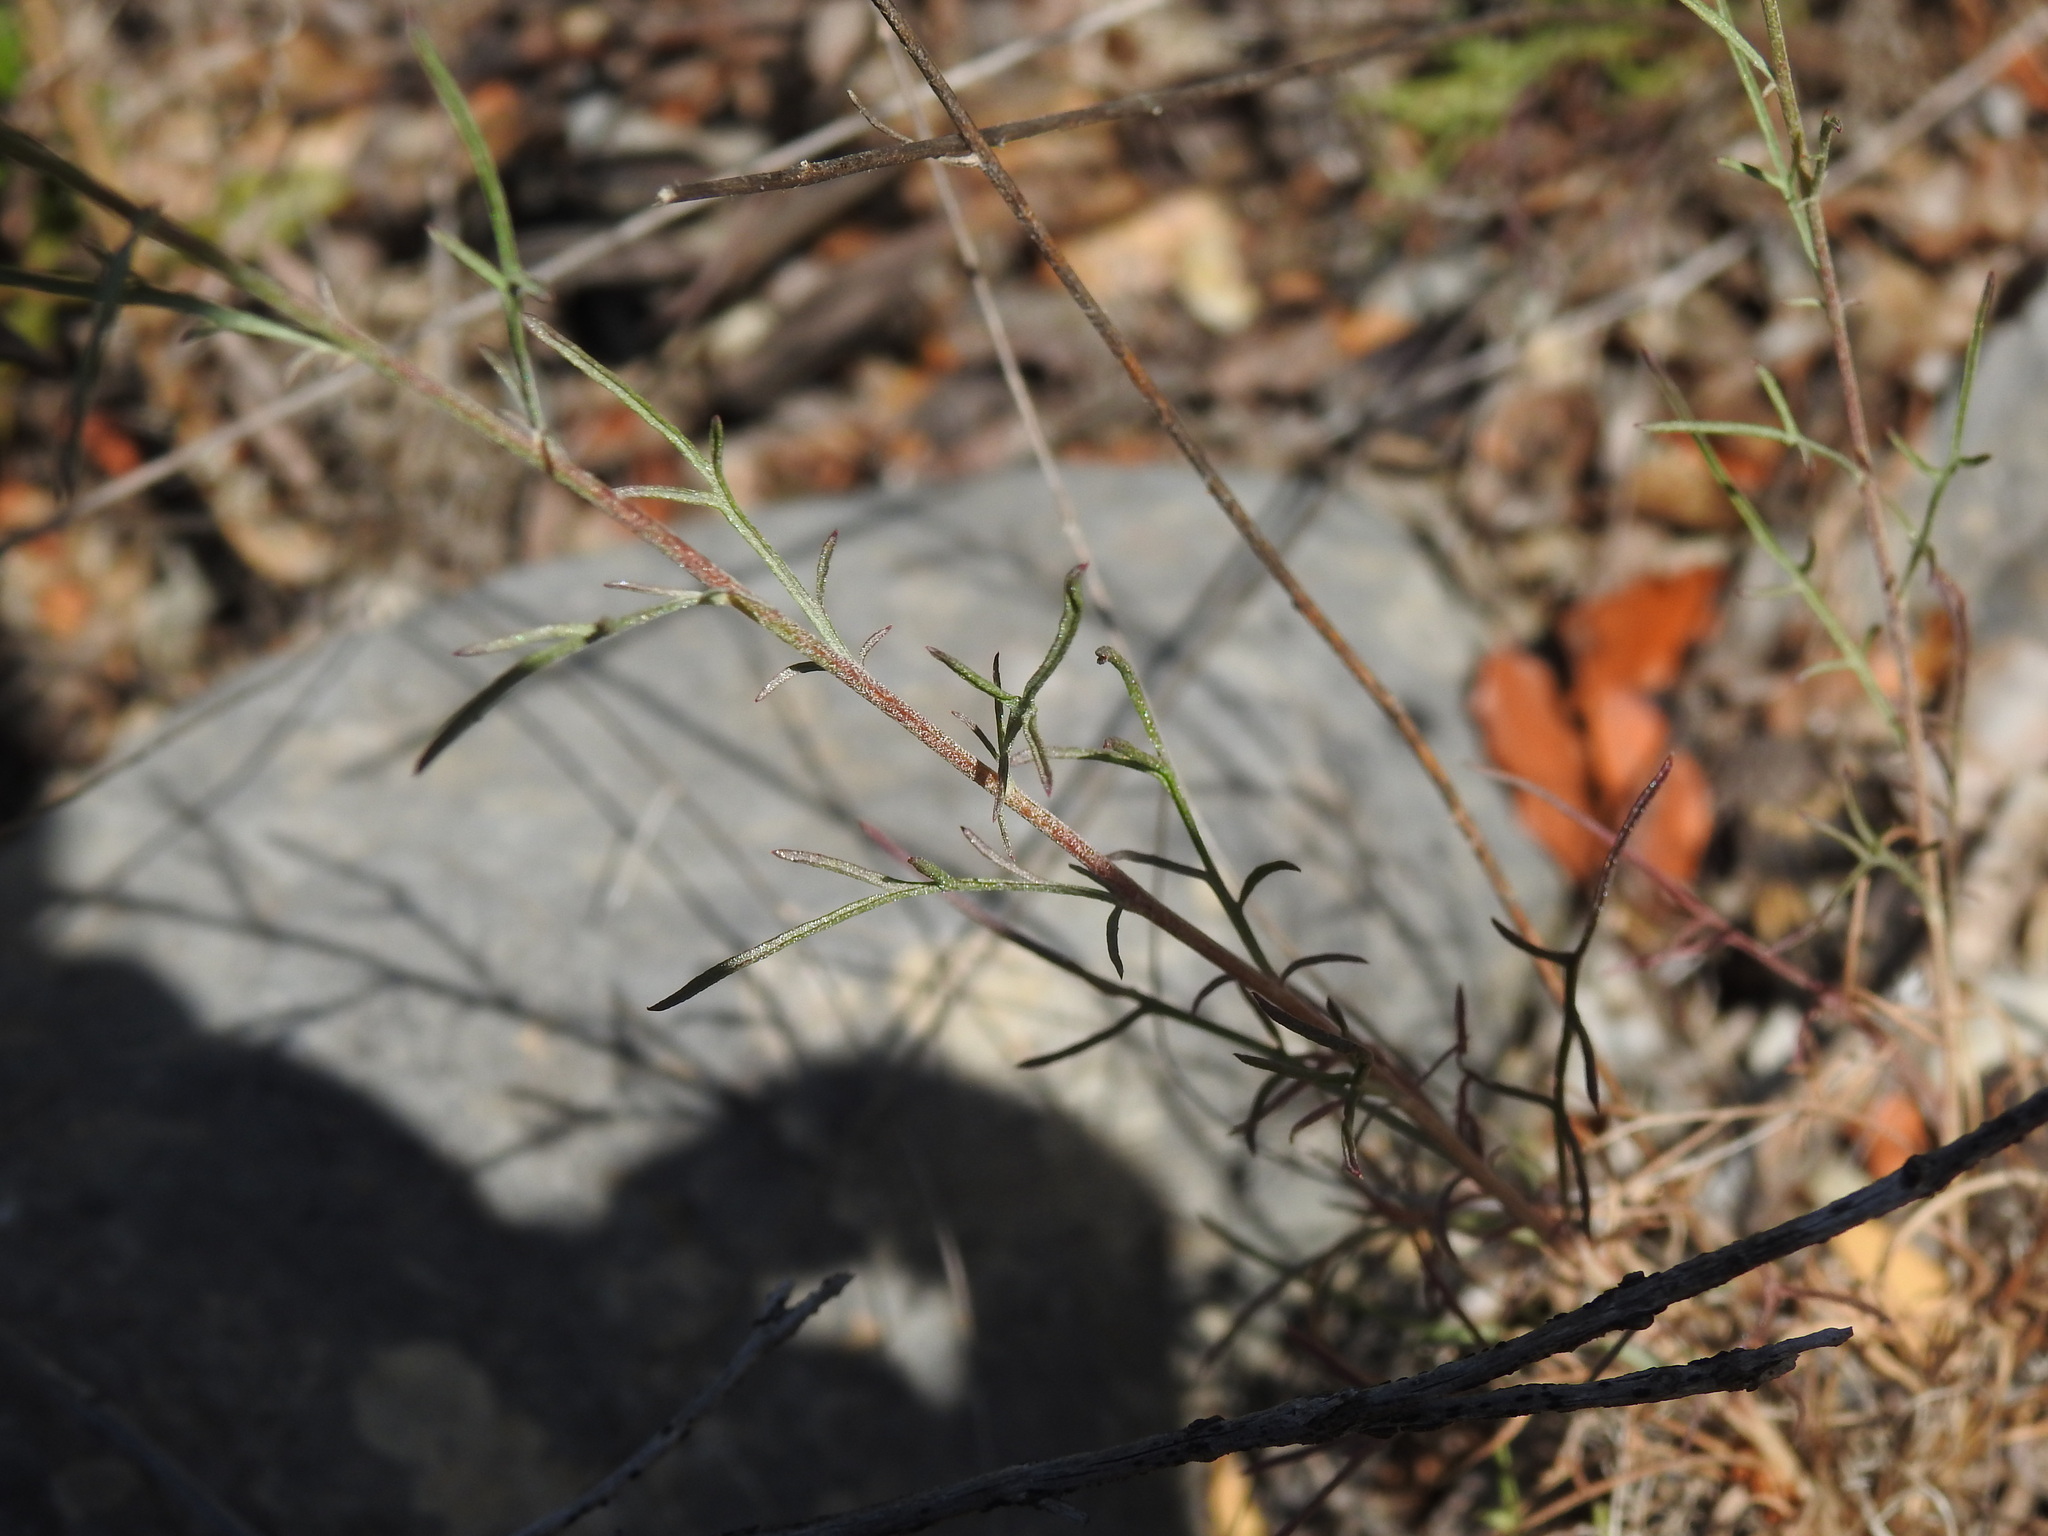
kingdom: Plantae
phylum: Tracheophyta
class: Magnoliopsida
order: Asterales
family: Asteraceae
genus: Centaurea
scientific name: Centaurea cordubensis
